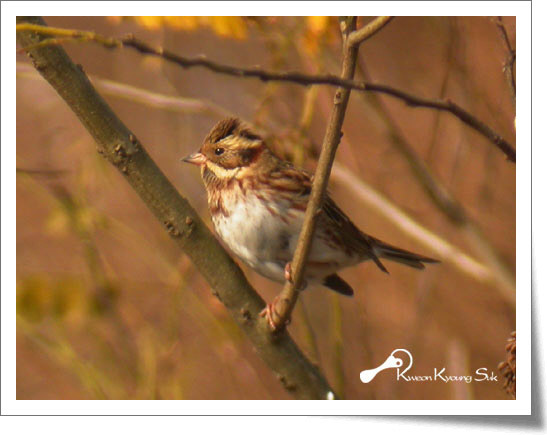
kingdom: Animalia
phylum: Chordata
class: Aves
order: Passeriformes
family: Emberizidae
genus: Emberiza
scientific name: Emberiza rustica
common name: Rustic bunting
